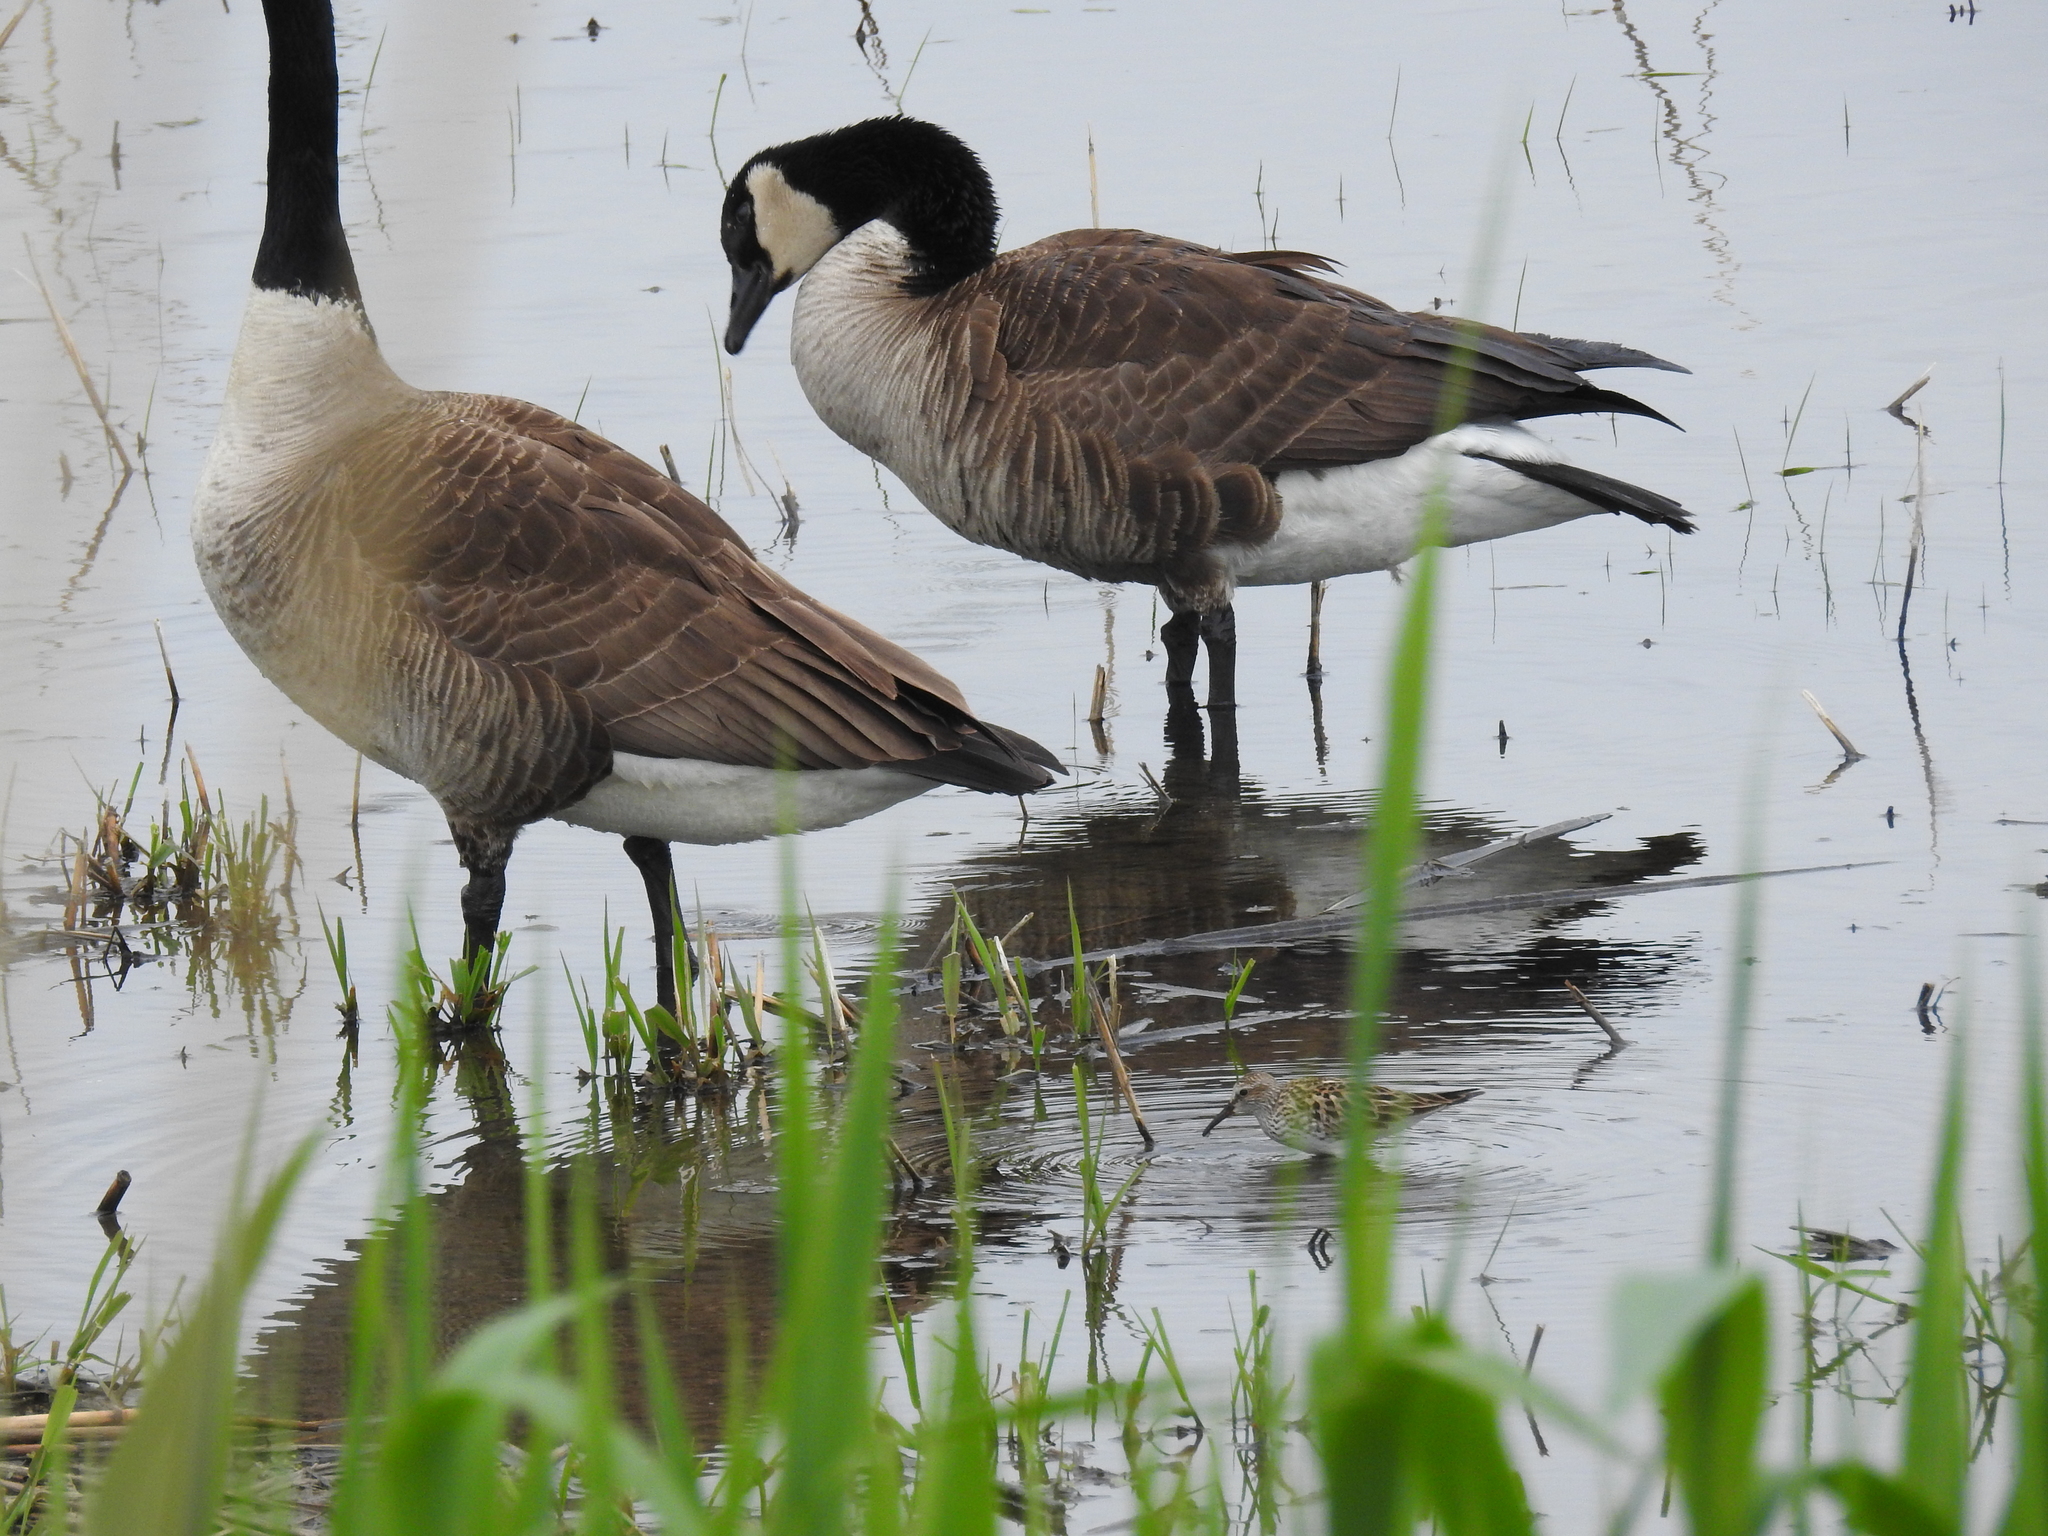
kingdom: Animalia
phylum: Chordata
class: Aves
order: Anseriformes
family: Anatidae
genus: Branta
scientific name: Branta canadensis
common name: Canada goose
